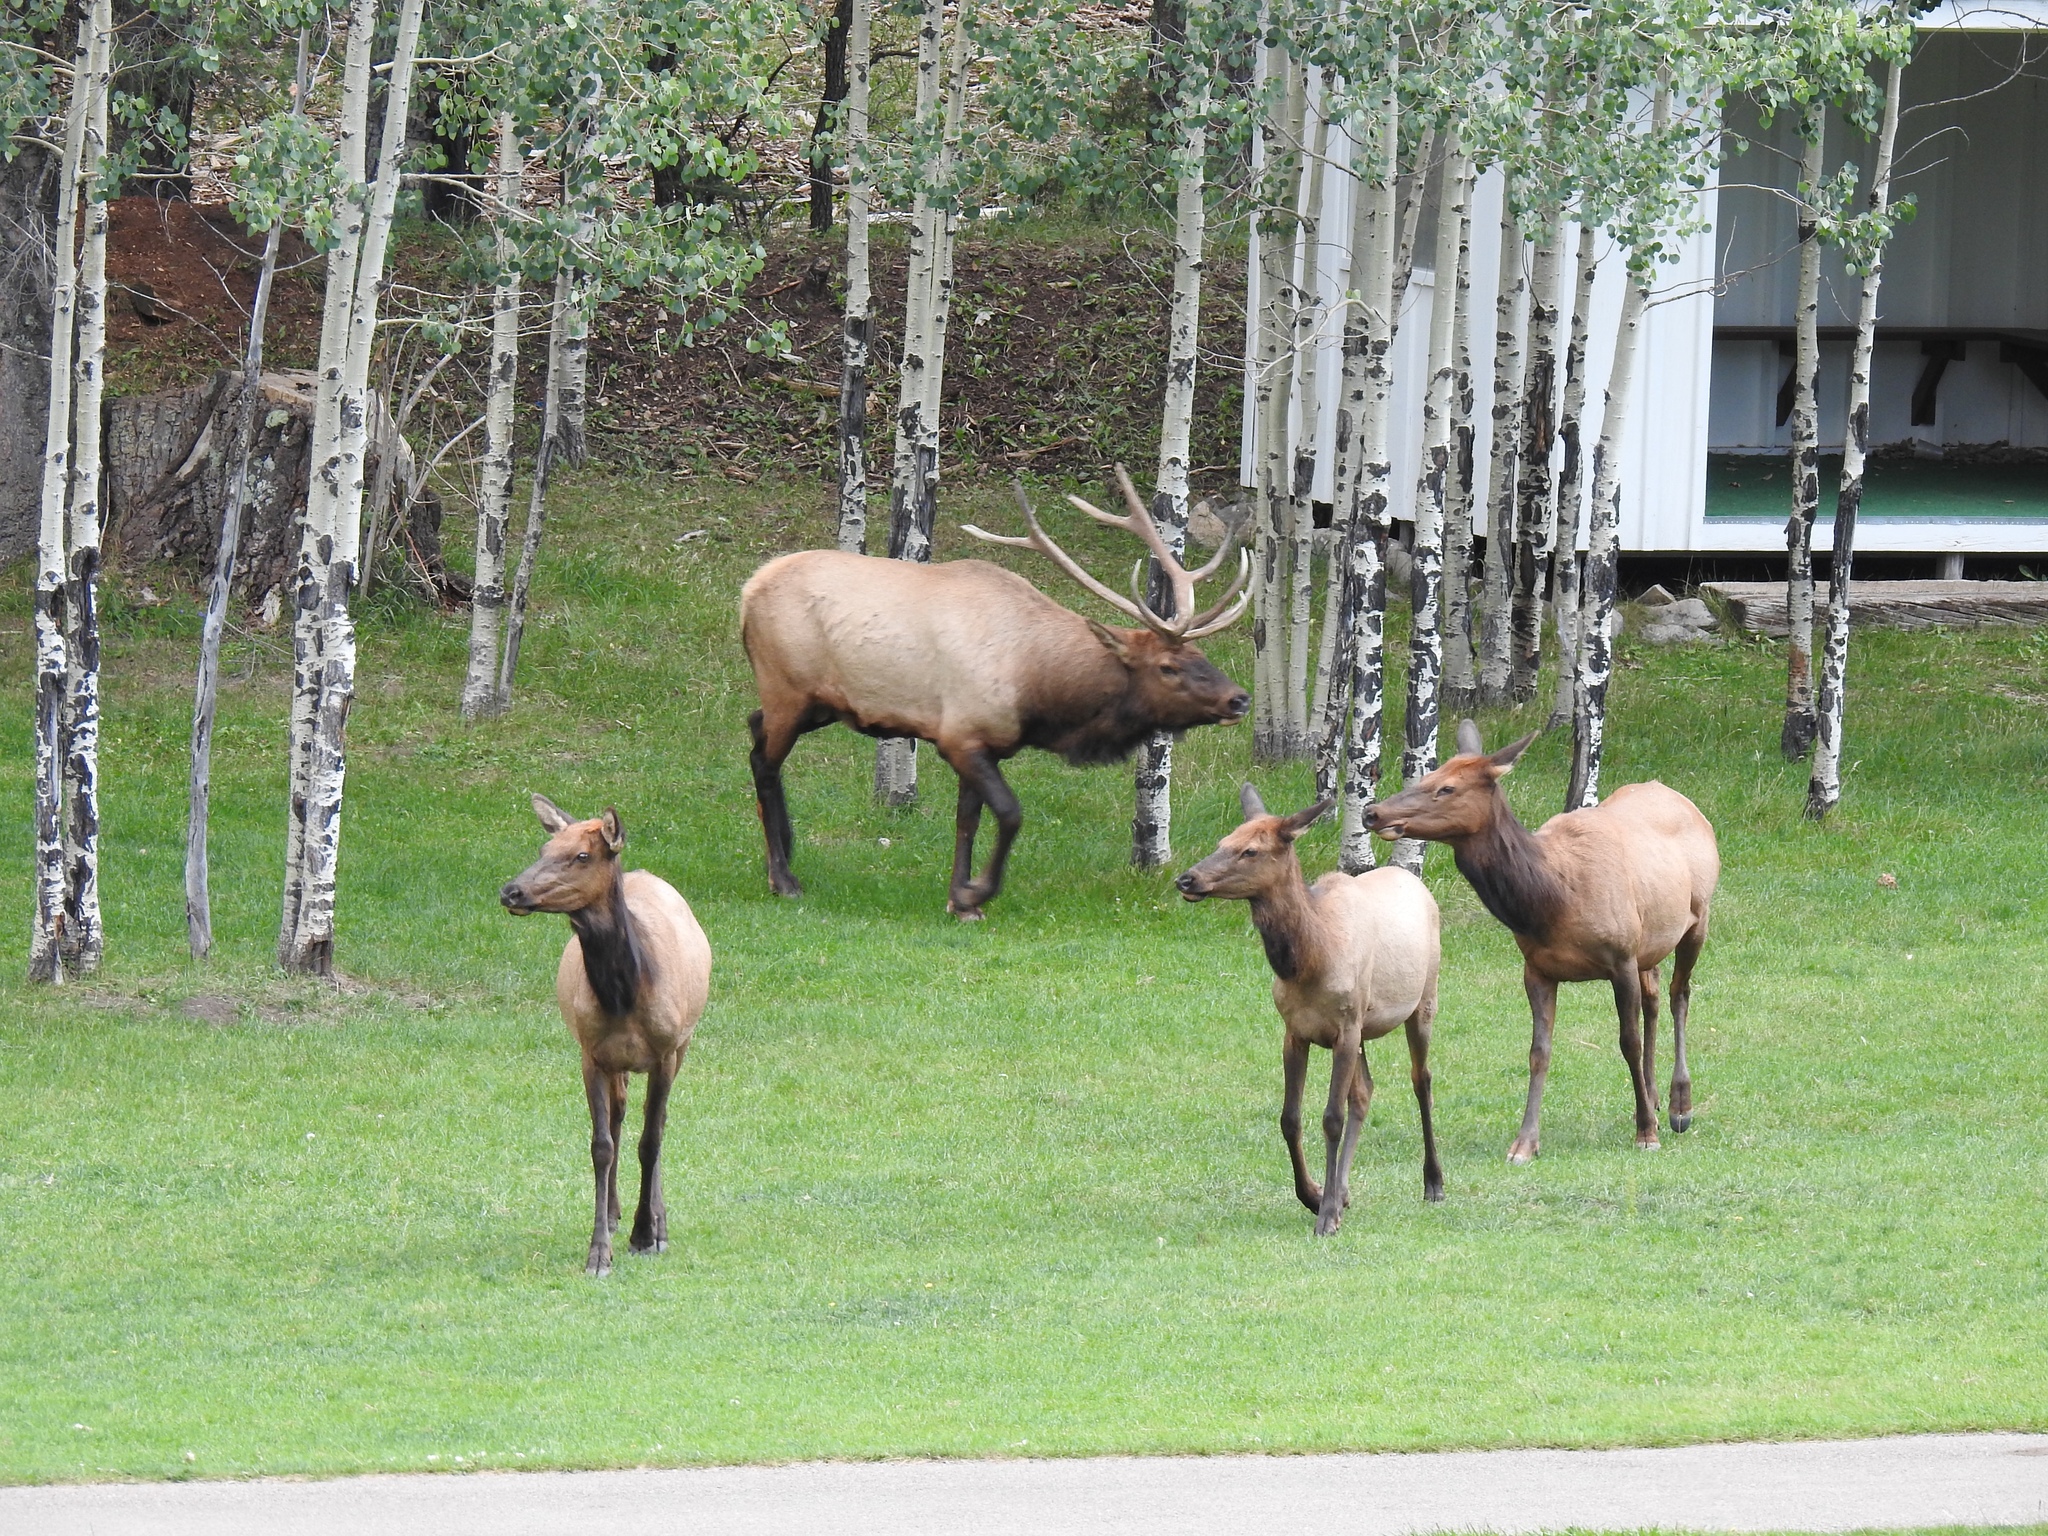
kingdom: Animalia
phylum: Chordata
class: Mammalia
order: Artiodactyla
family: Cervidae
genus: Cervus
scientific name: Cervus elaphus
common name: Red deer
